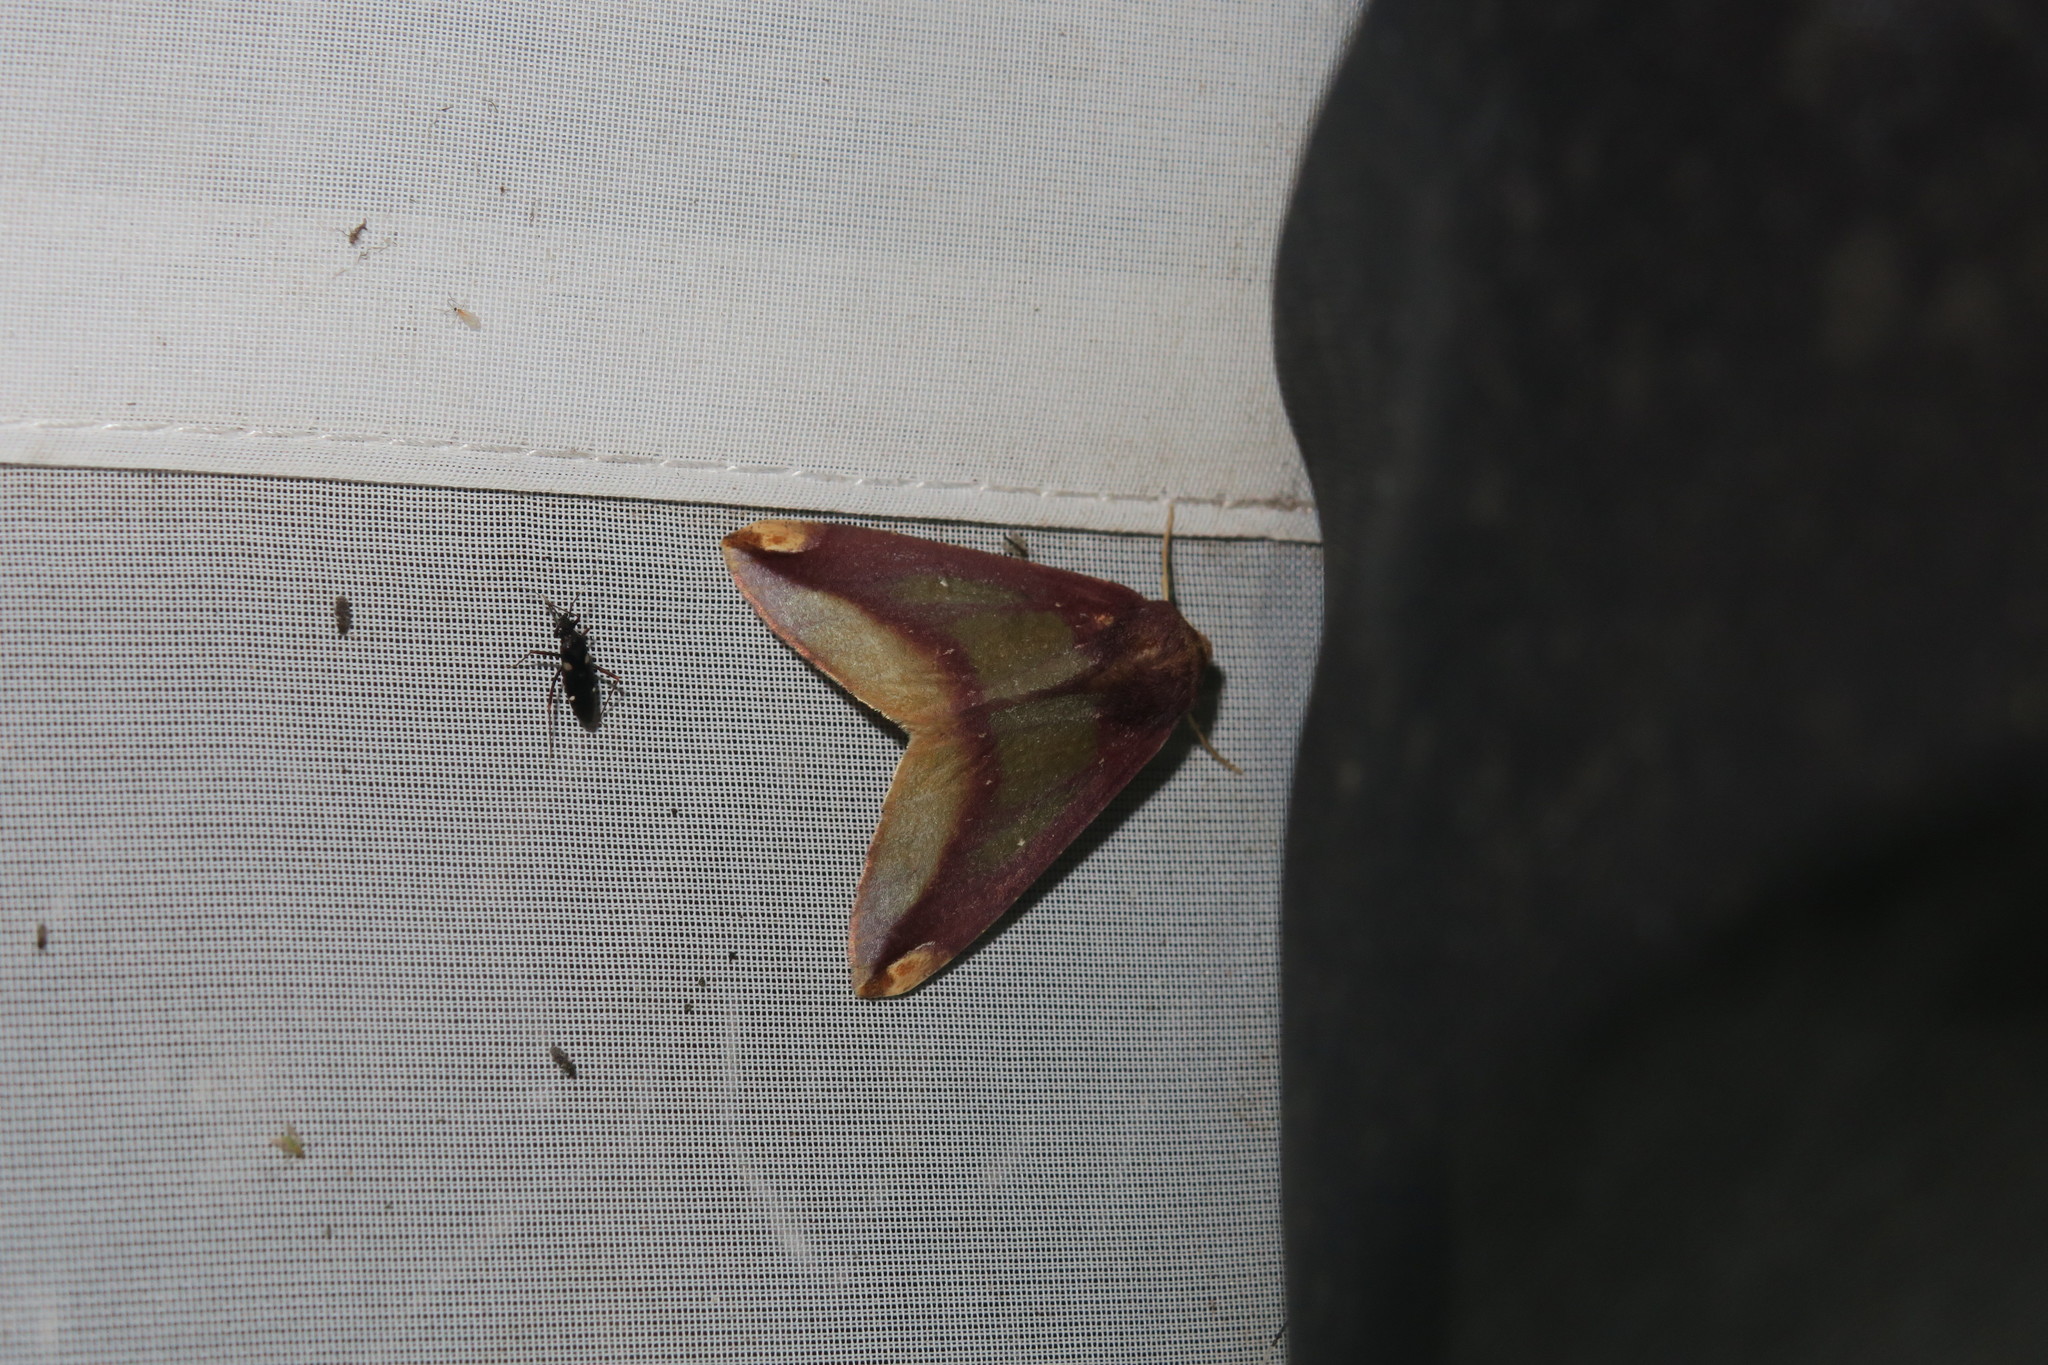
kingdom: Animalia
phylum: Arthropoda
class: Insecta
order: Lepidoptera
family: Geometridae
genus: Bassania
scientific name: Bassania foingi
